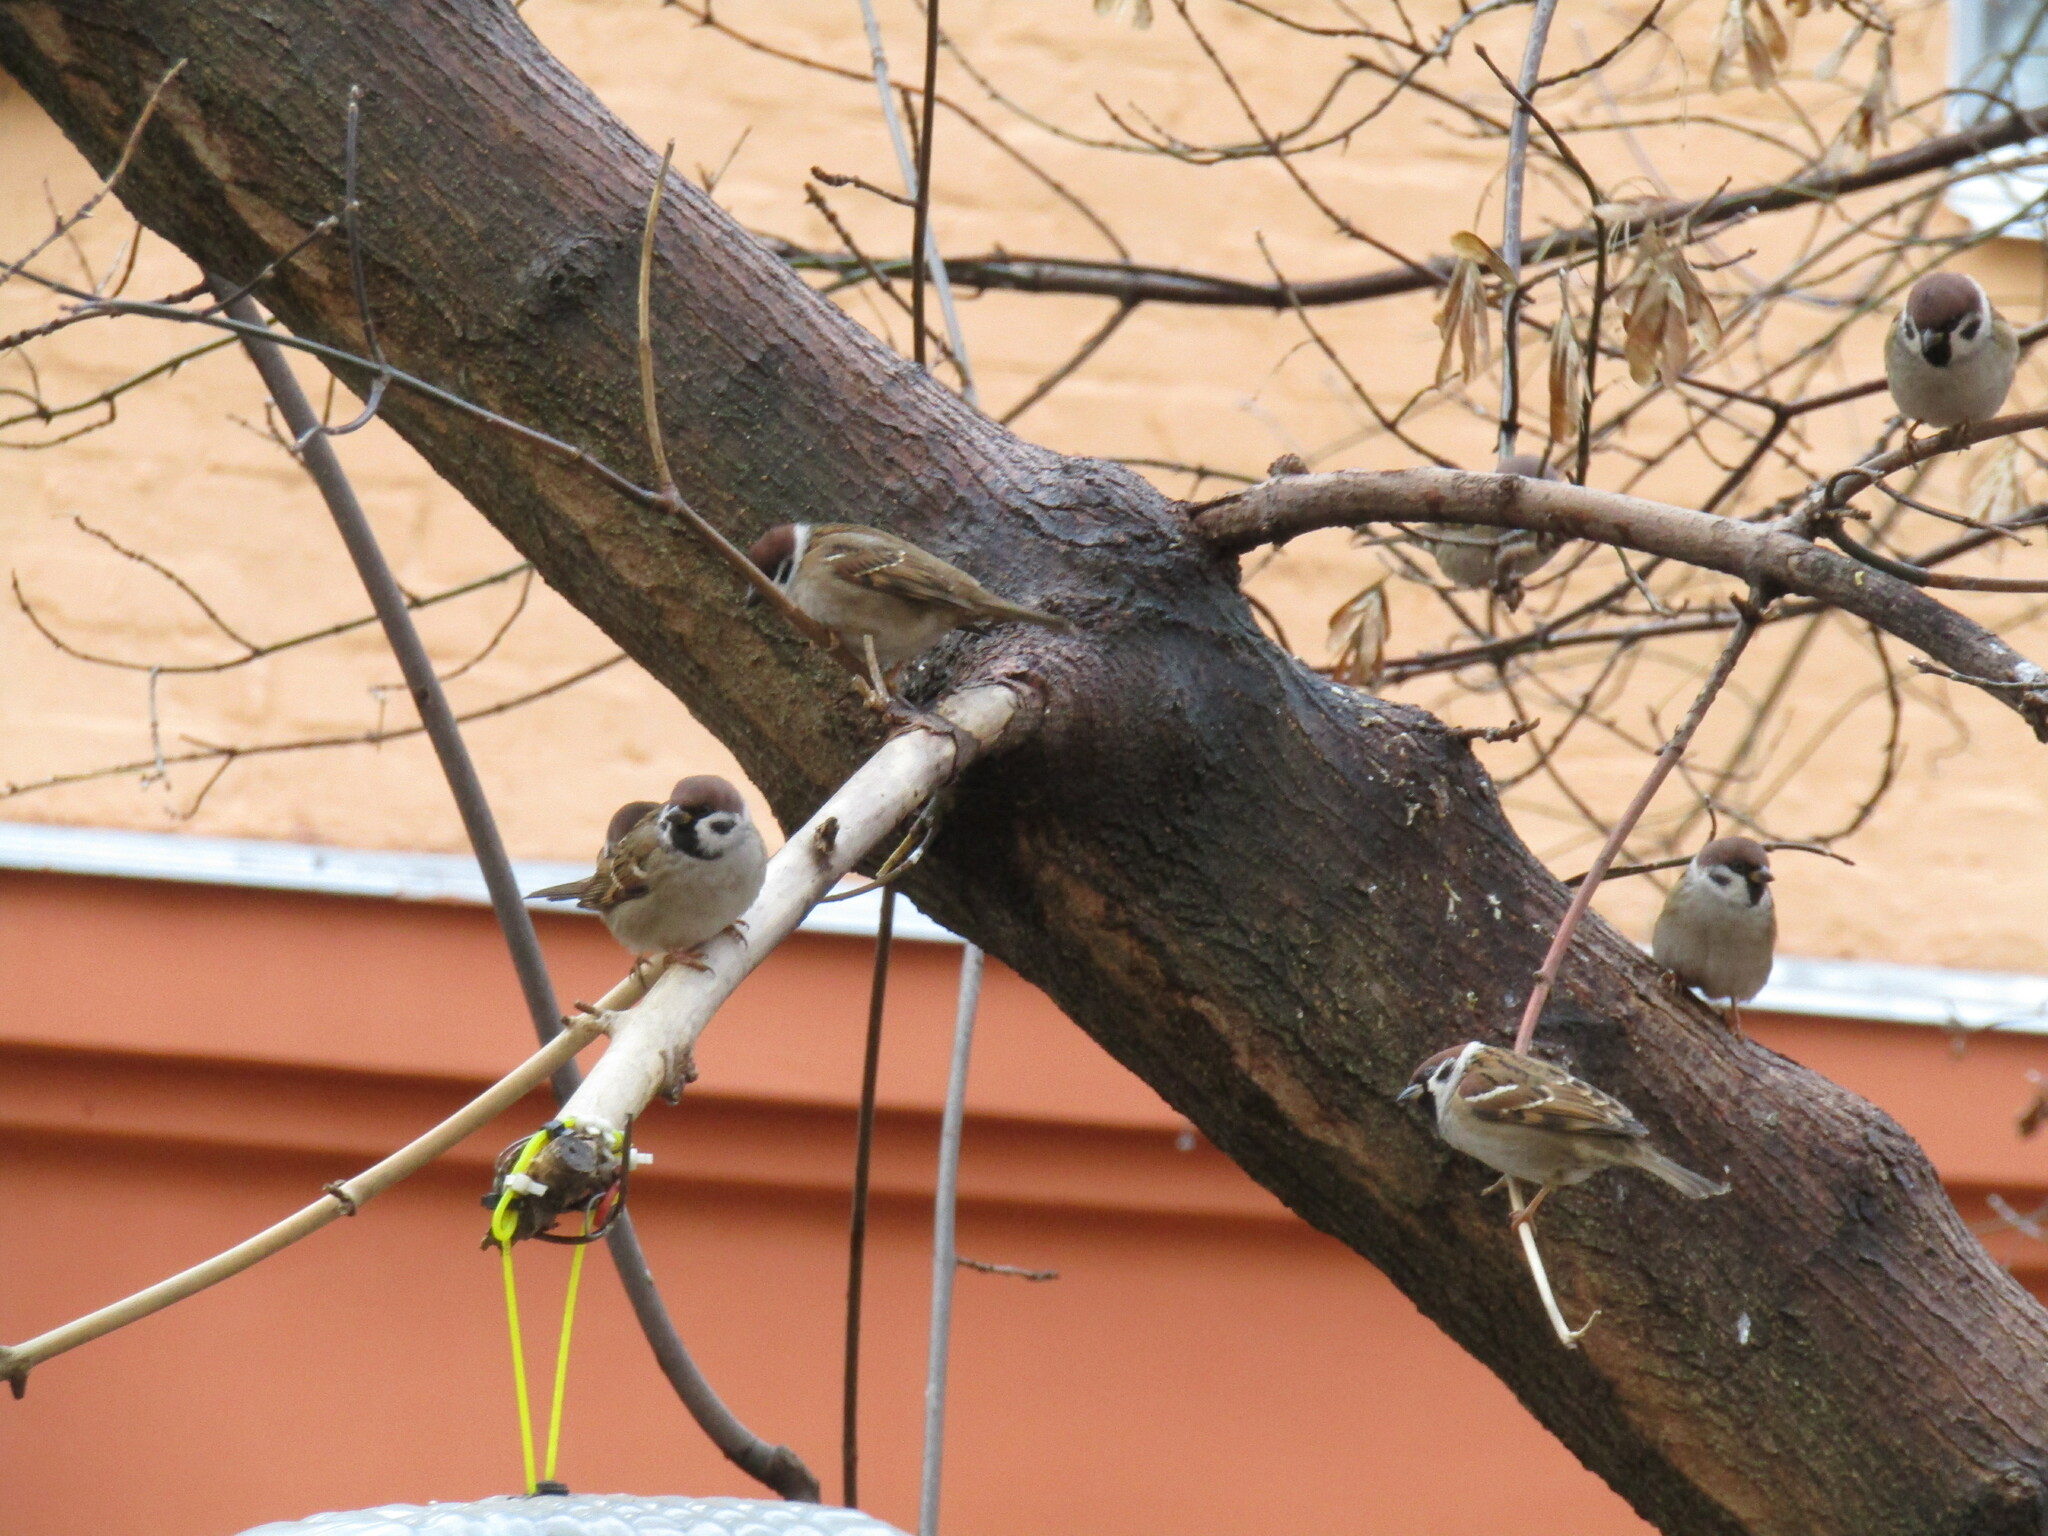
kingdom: Animalia
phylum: Chordata
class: Aves
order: Passeriformes
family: Passeridae
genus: Passer
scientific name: Passer montanus
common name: Eurasian tree sparrow
